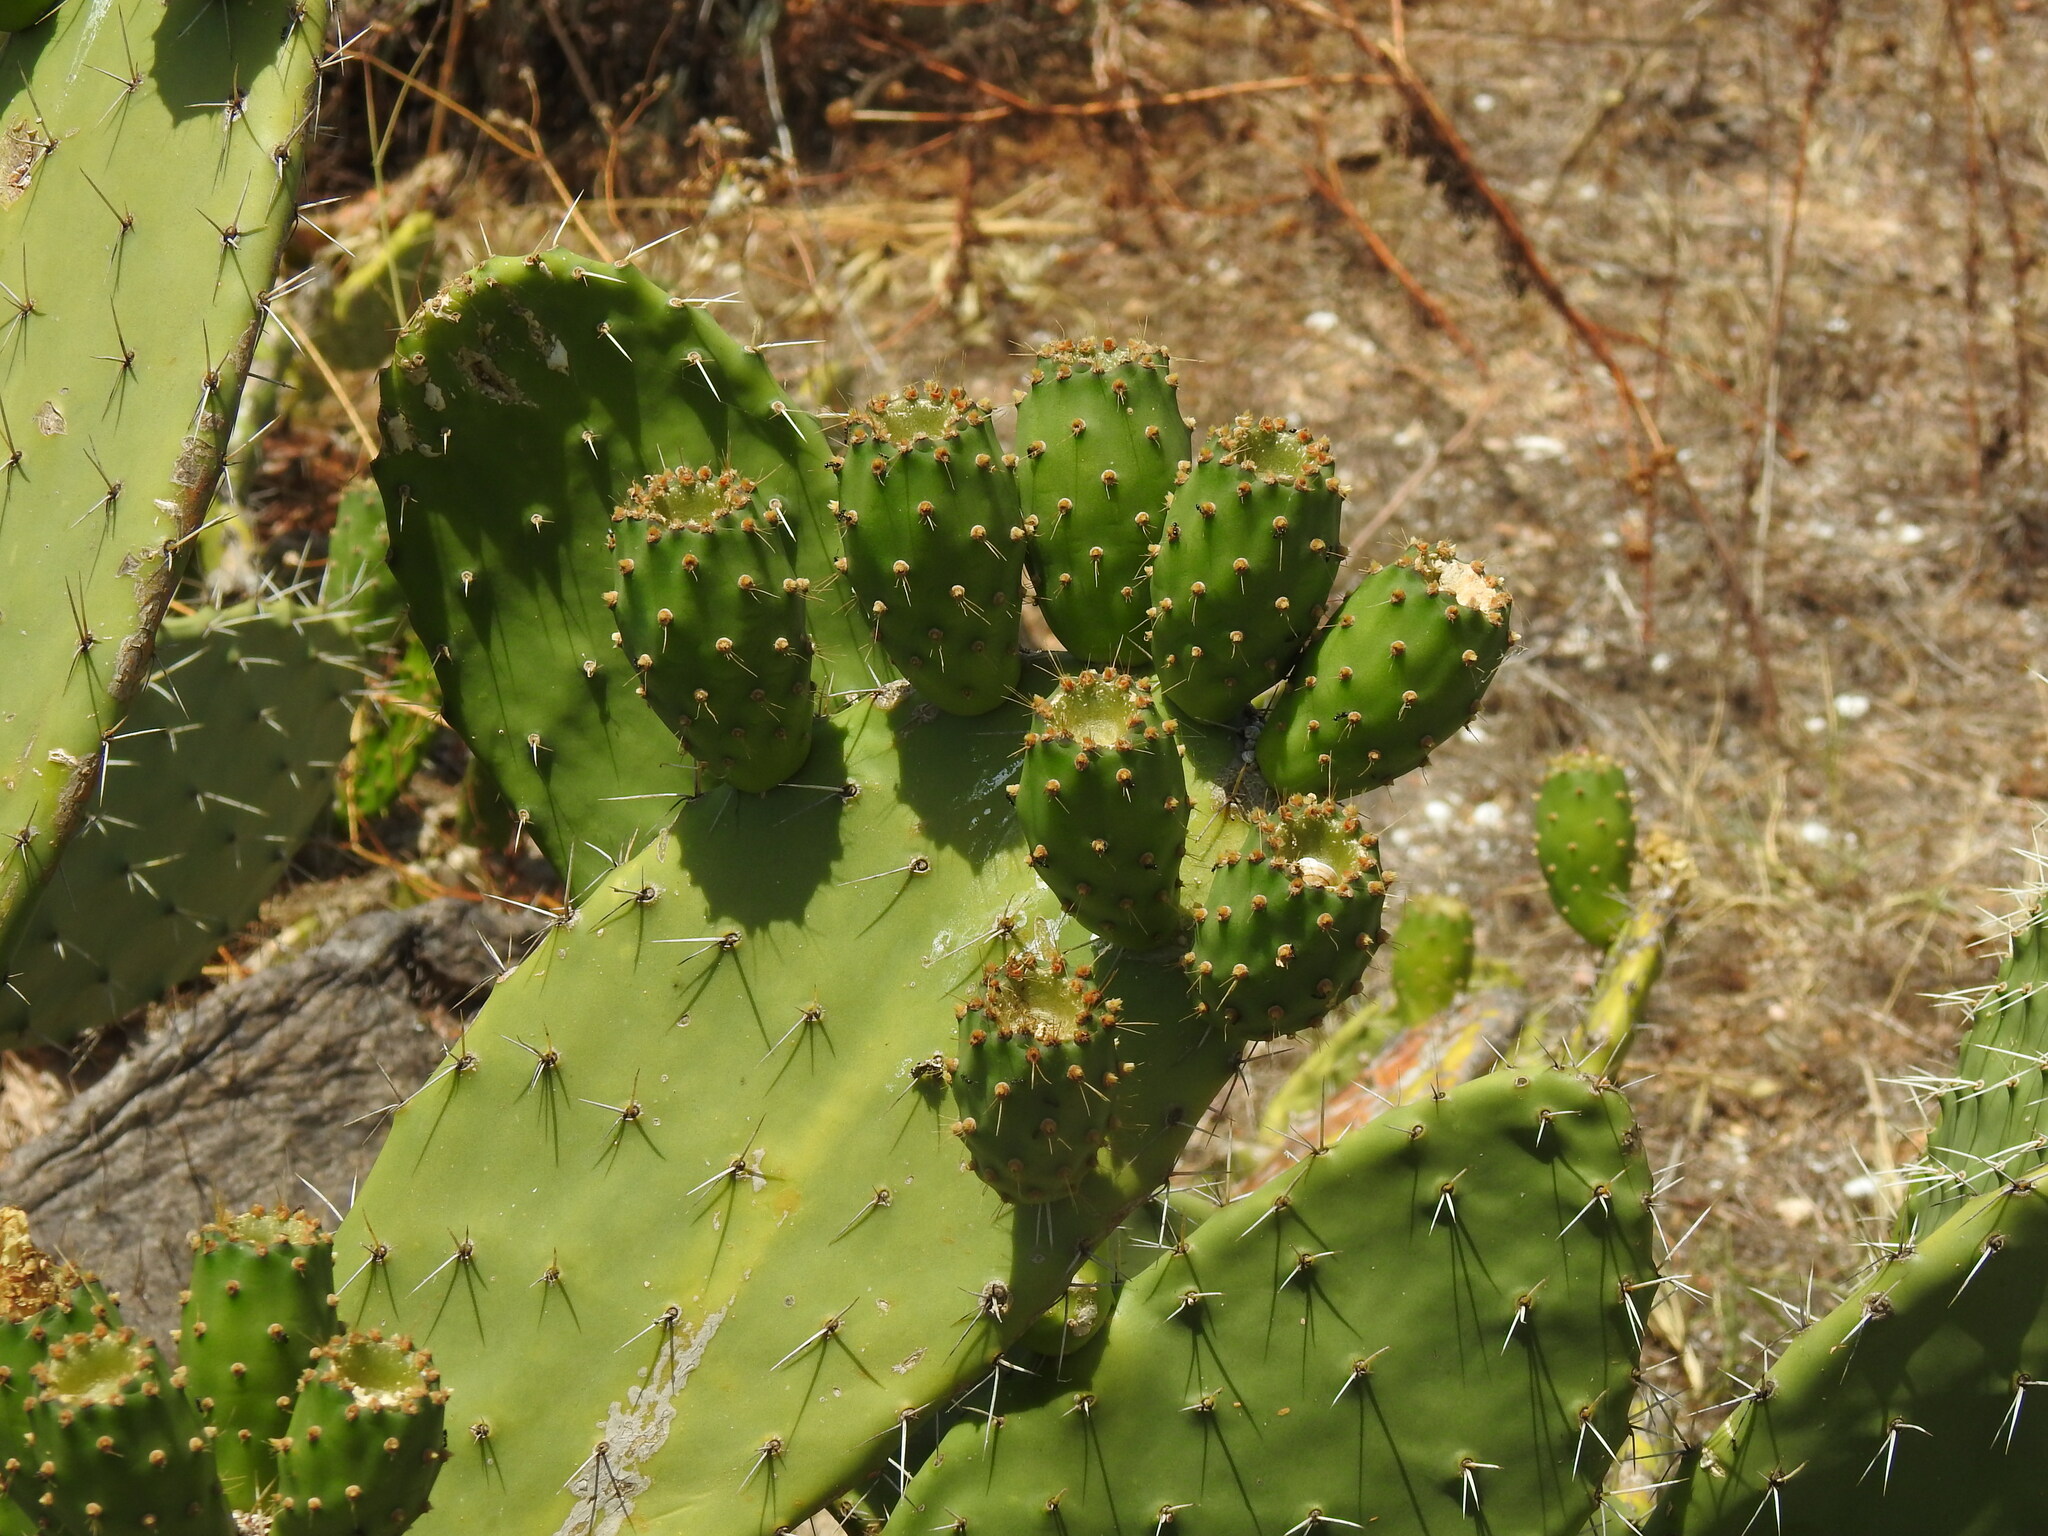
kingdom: Plantae
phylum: Tracheophyta
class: Magnoliopsida
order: Caryophyllales
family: Cactaceae
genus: Opuntia
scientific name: Opuntia ficus-indica
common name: Barbary fig
